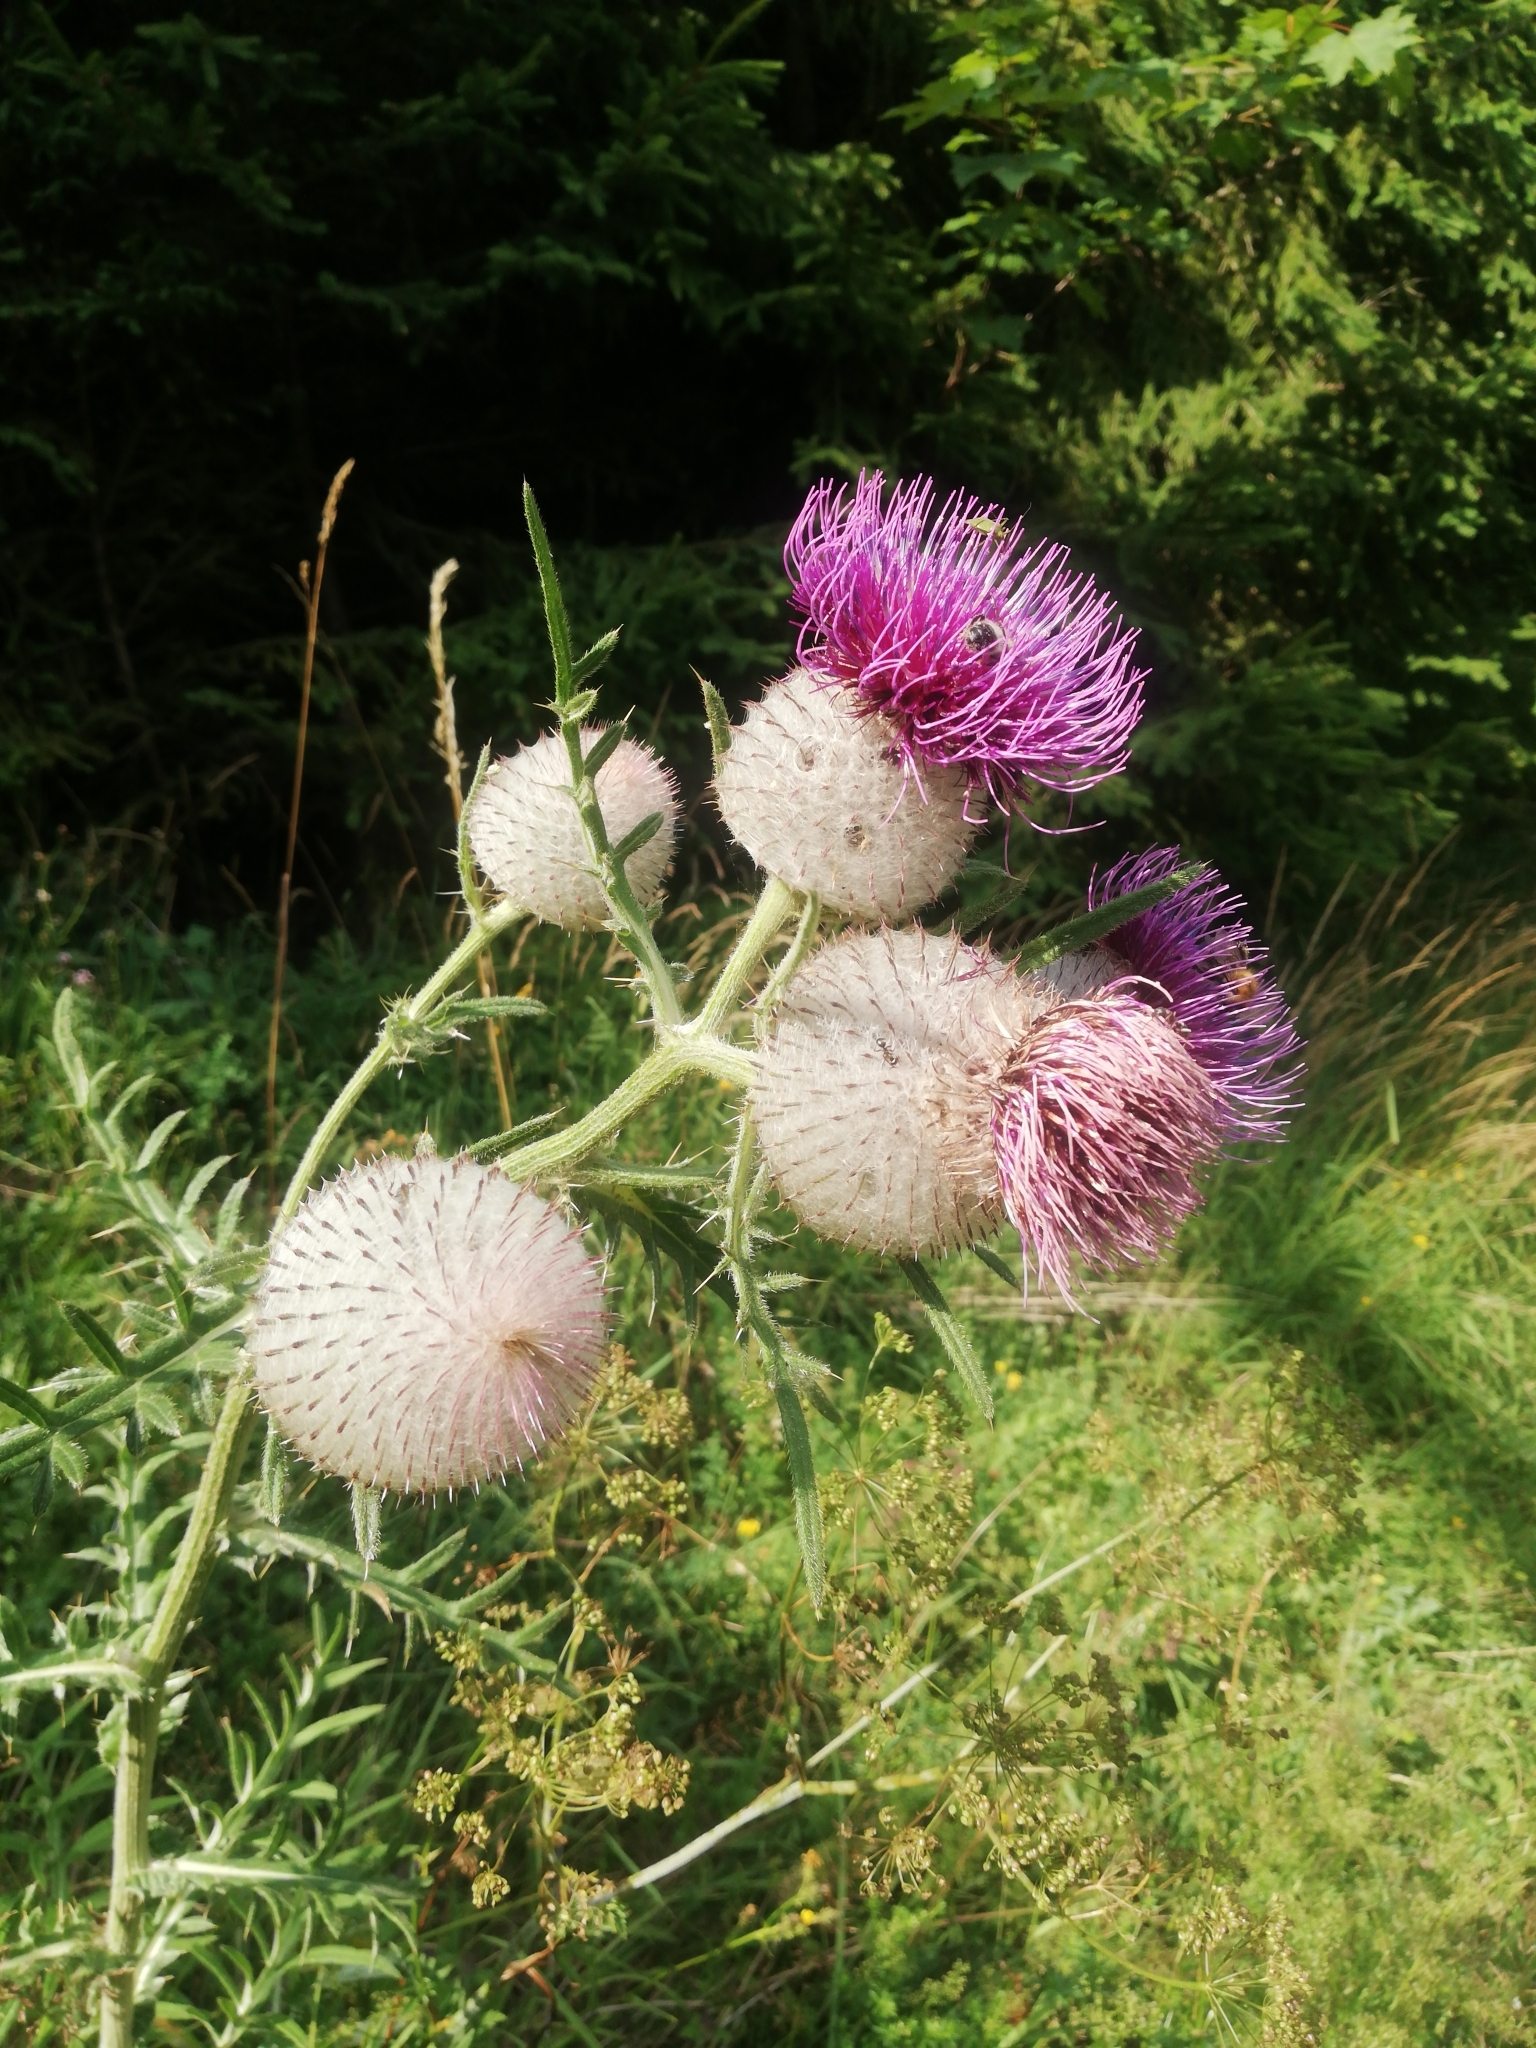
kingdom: Plantae
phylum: Tracheophyta
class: Magnoliopsida
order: Asterales
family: Asteraceae
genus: Lophiolepis
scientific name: Lophiolepis eriophora
